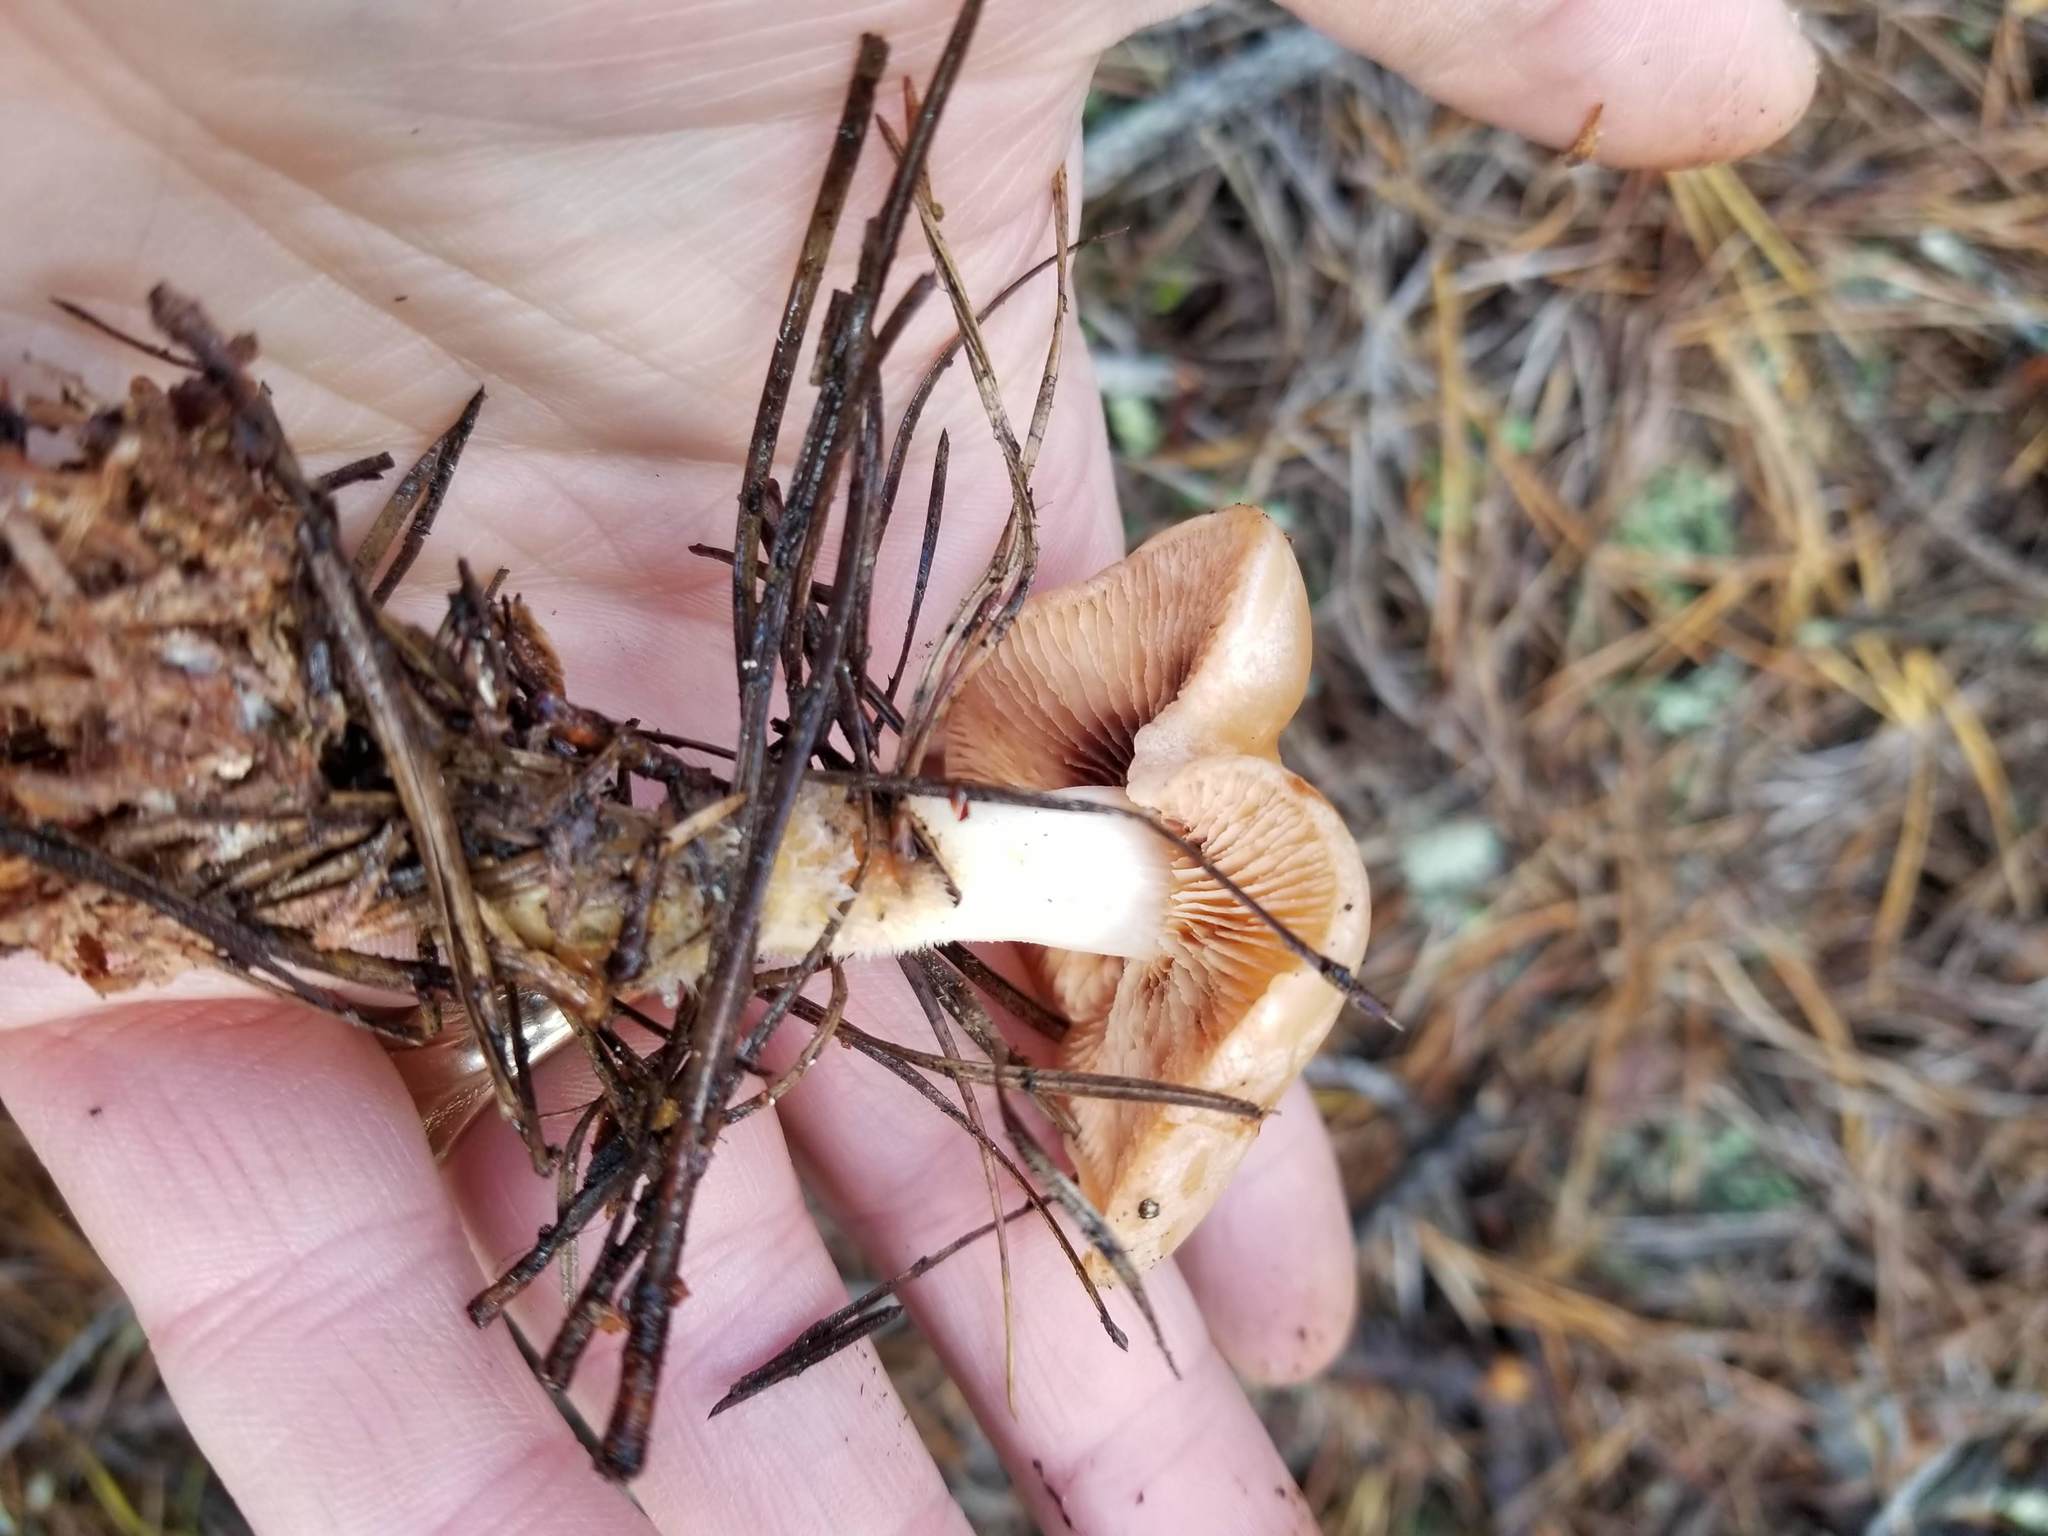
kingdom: Fungi
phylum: Basidiomycota
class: Agaricomycetes
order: Agaricales
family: Omphalotaceae
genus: Rhodocollybia
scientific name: Rhodocollybia butyracea
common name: Butter cap
